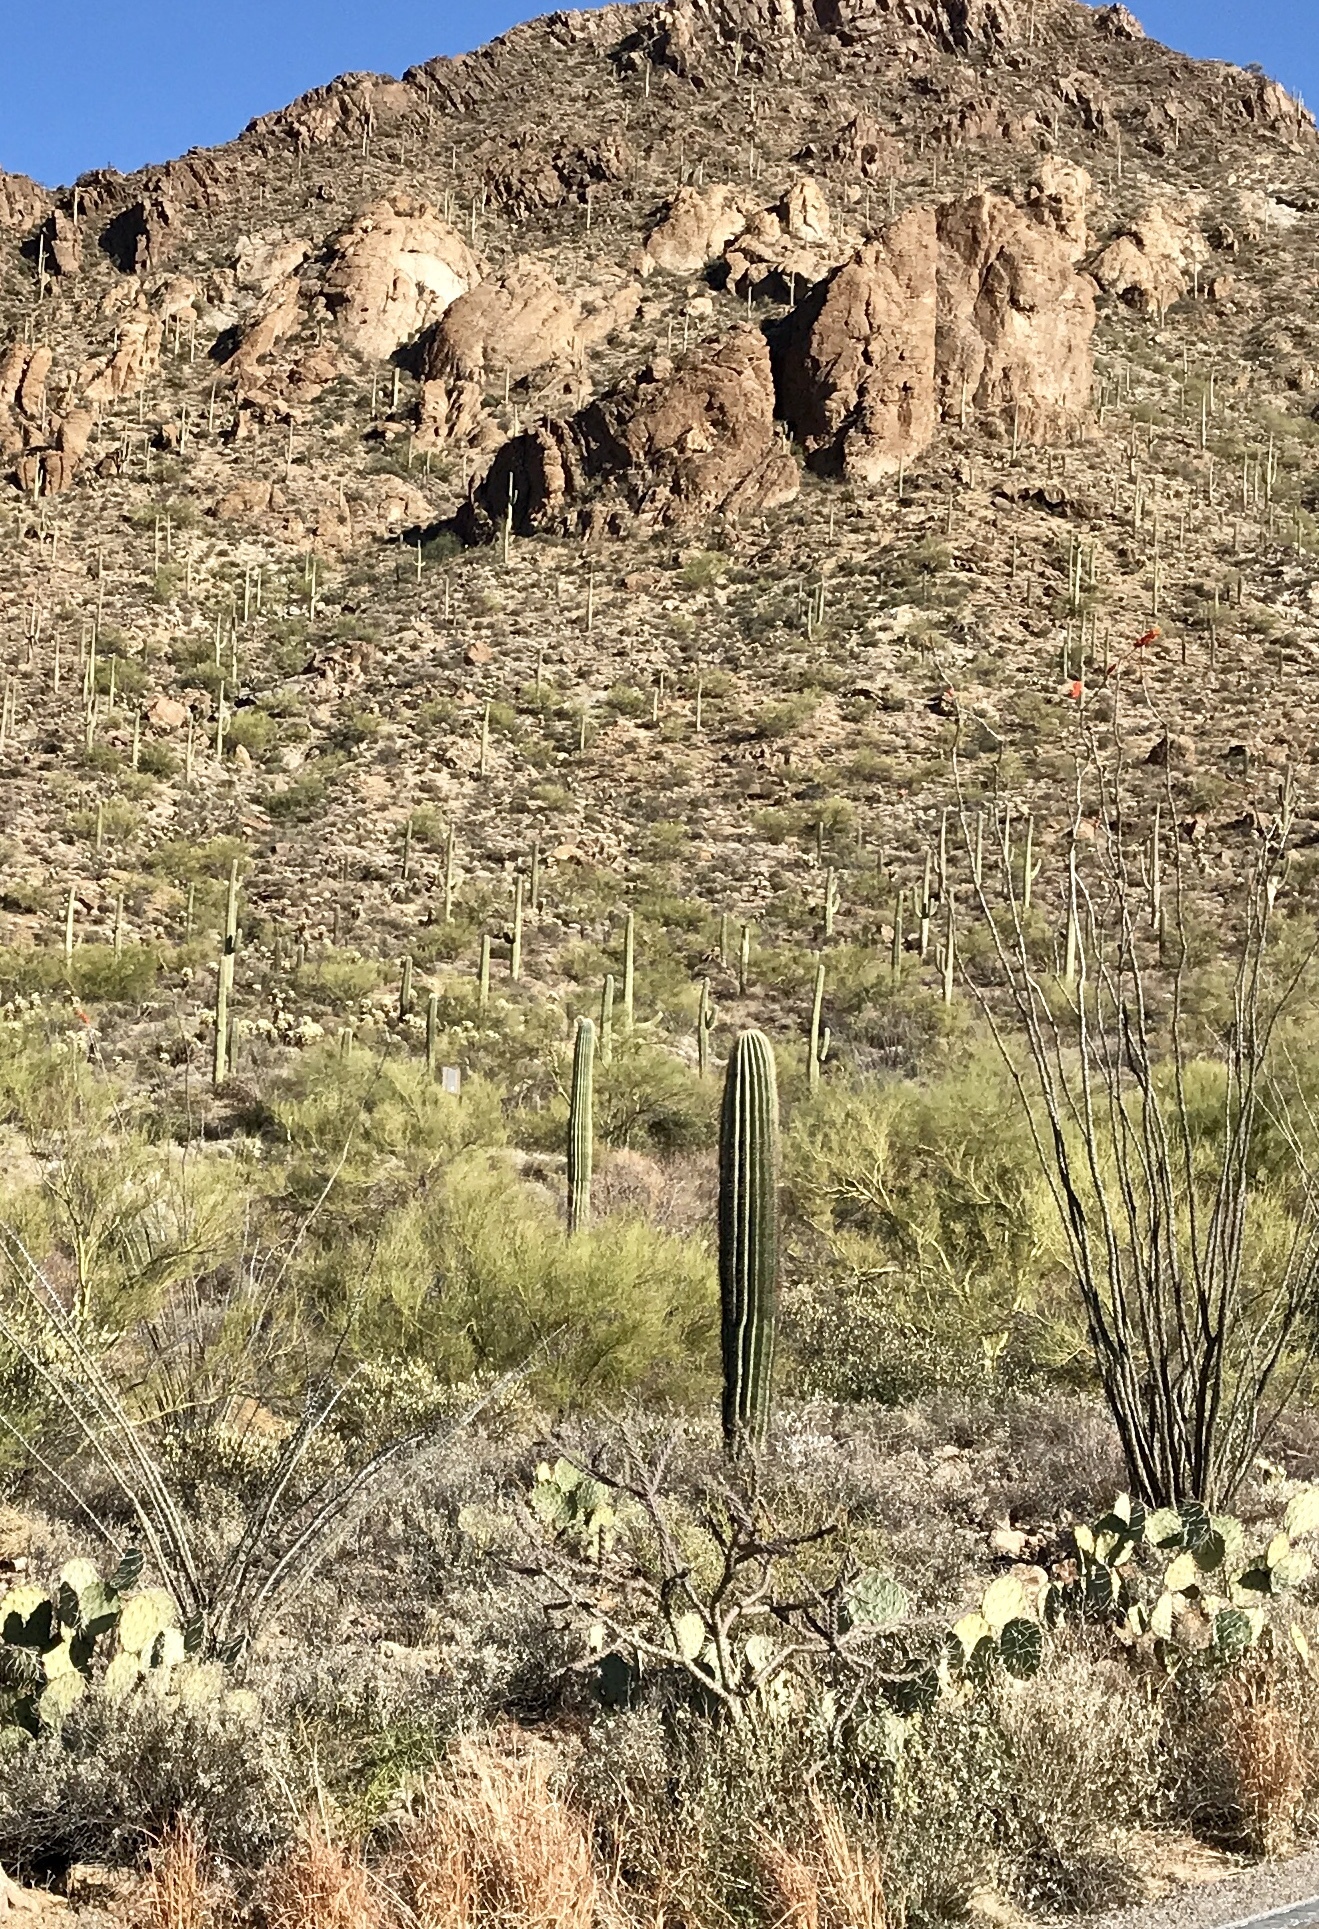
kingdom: Plantae
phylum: Tracheophyta
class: Magnoliopsida
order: Caryophyllales
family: Cactaceae
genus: Carnegiea
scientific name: Carnegiea gigantea
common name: Saguaro
